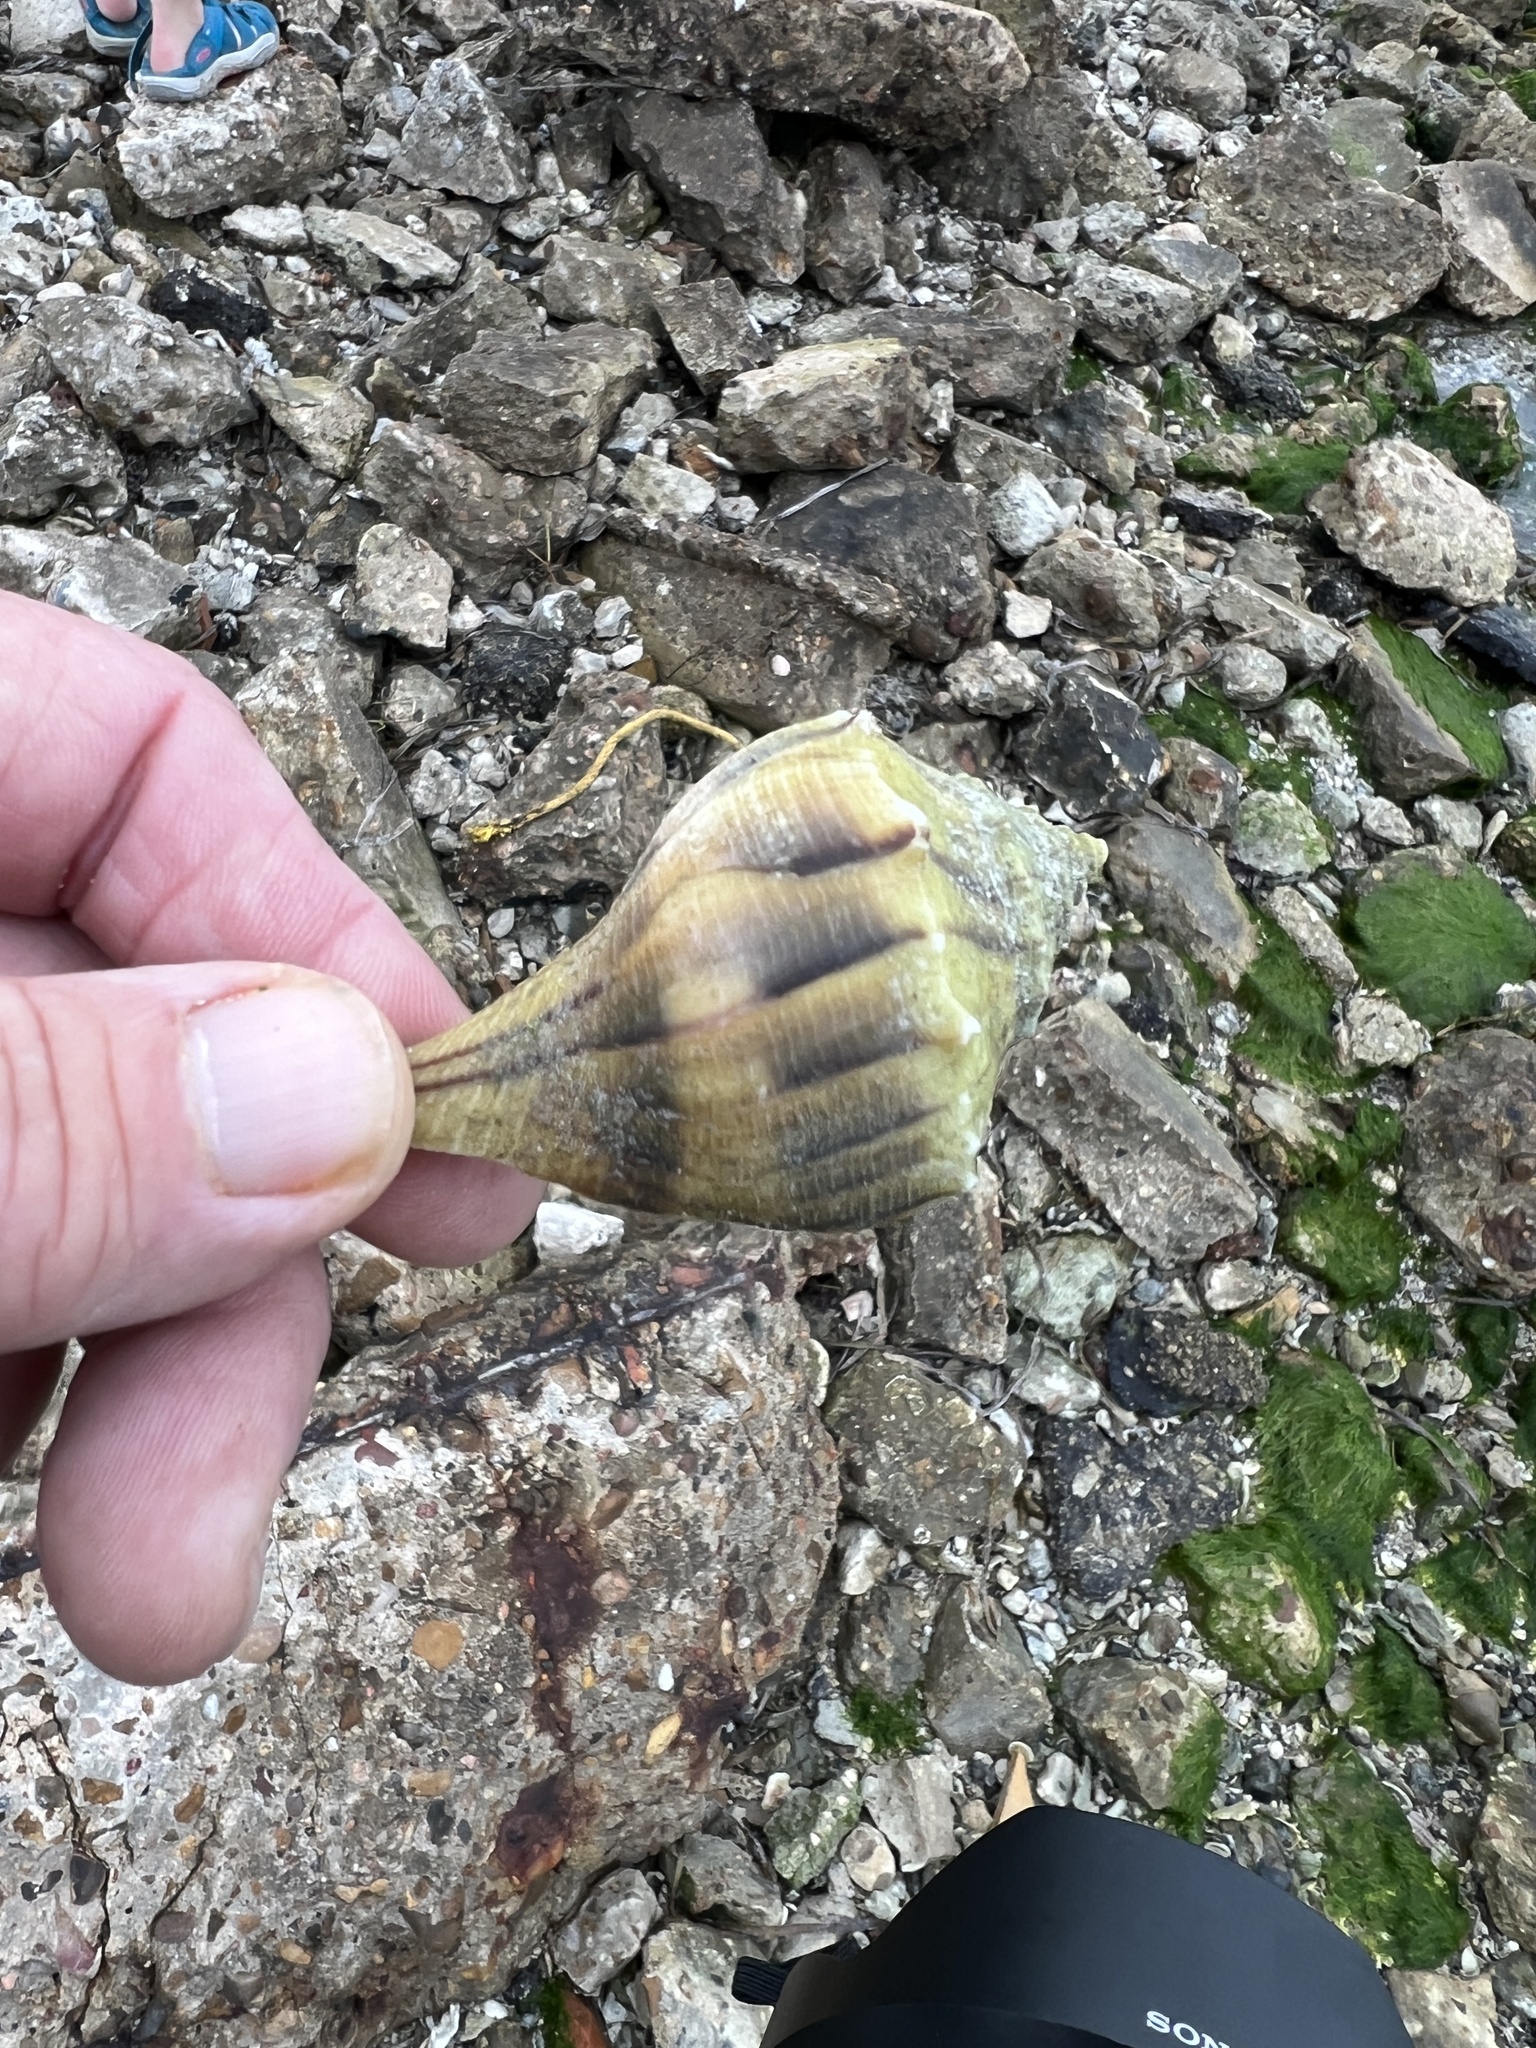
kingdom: Animalia
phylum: Mollusca
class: Gastropoda
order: Neogastropoda
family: Busyconidae
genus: Sinistrofulgur
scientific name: Sinistrofulgur pulleyi
